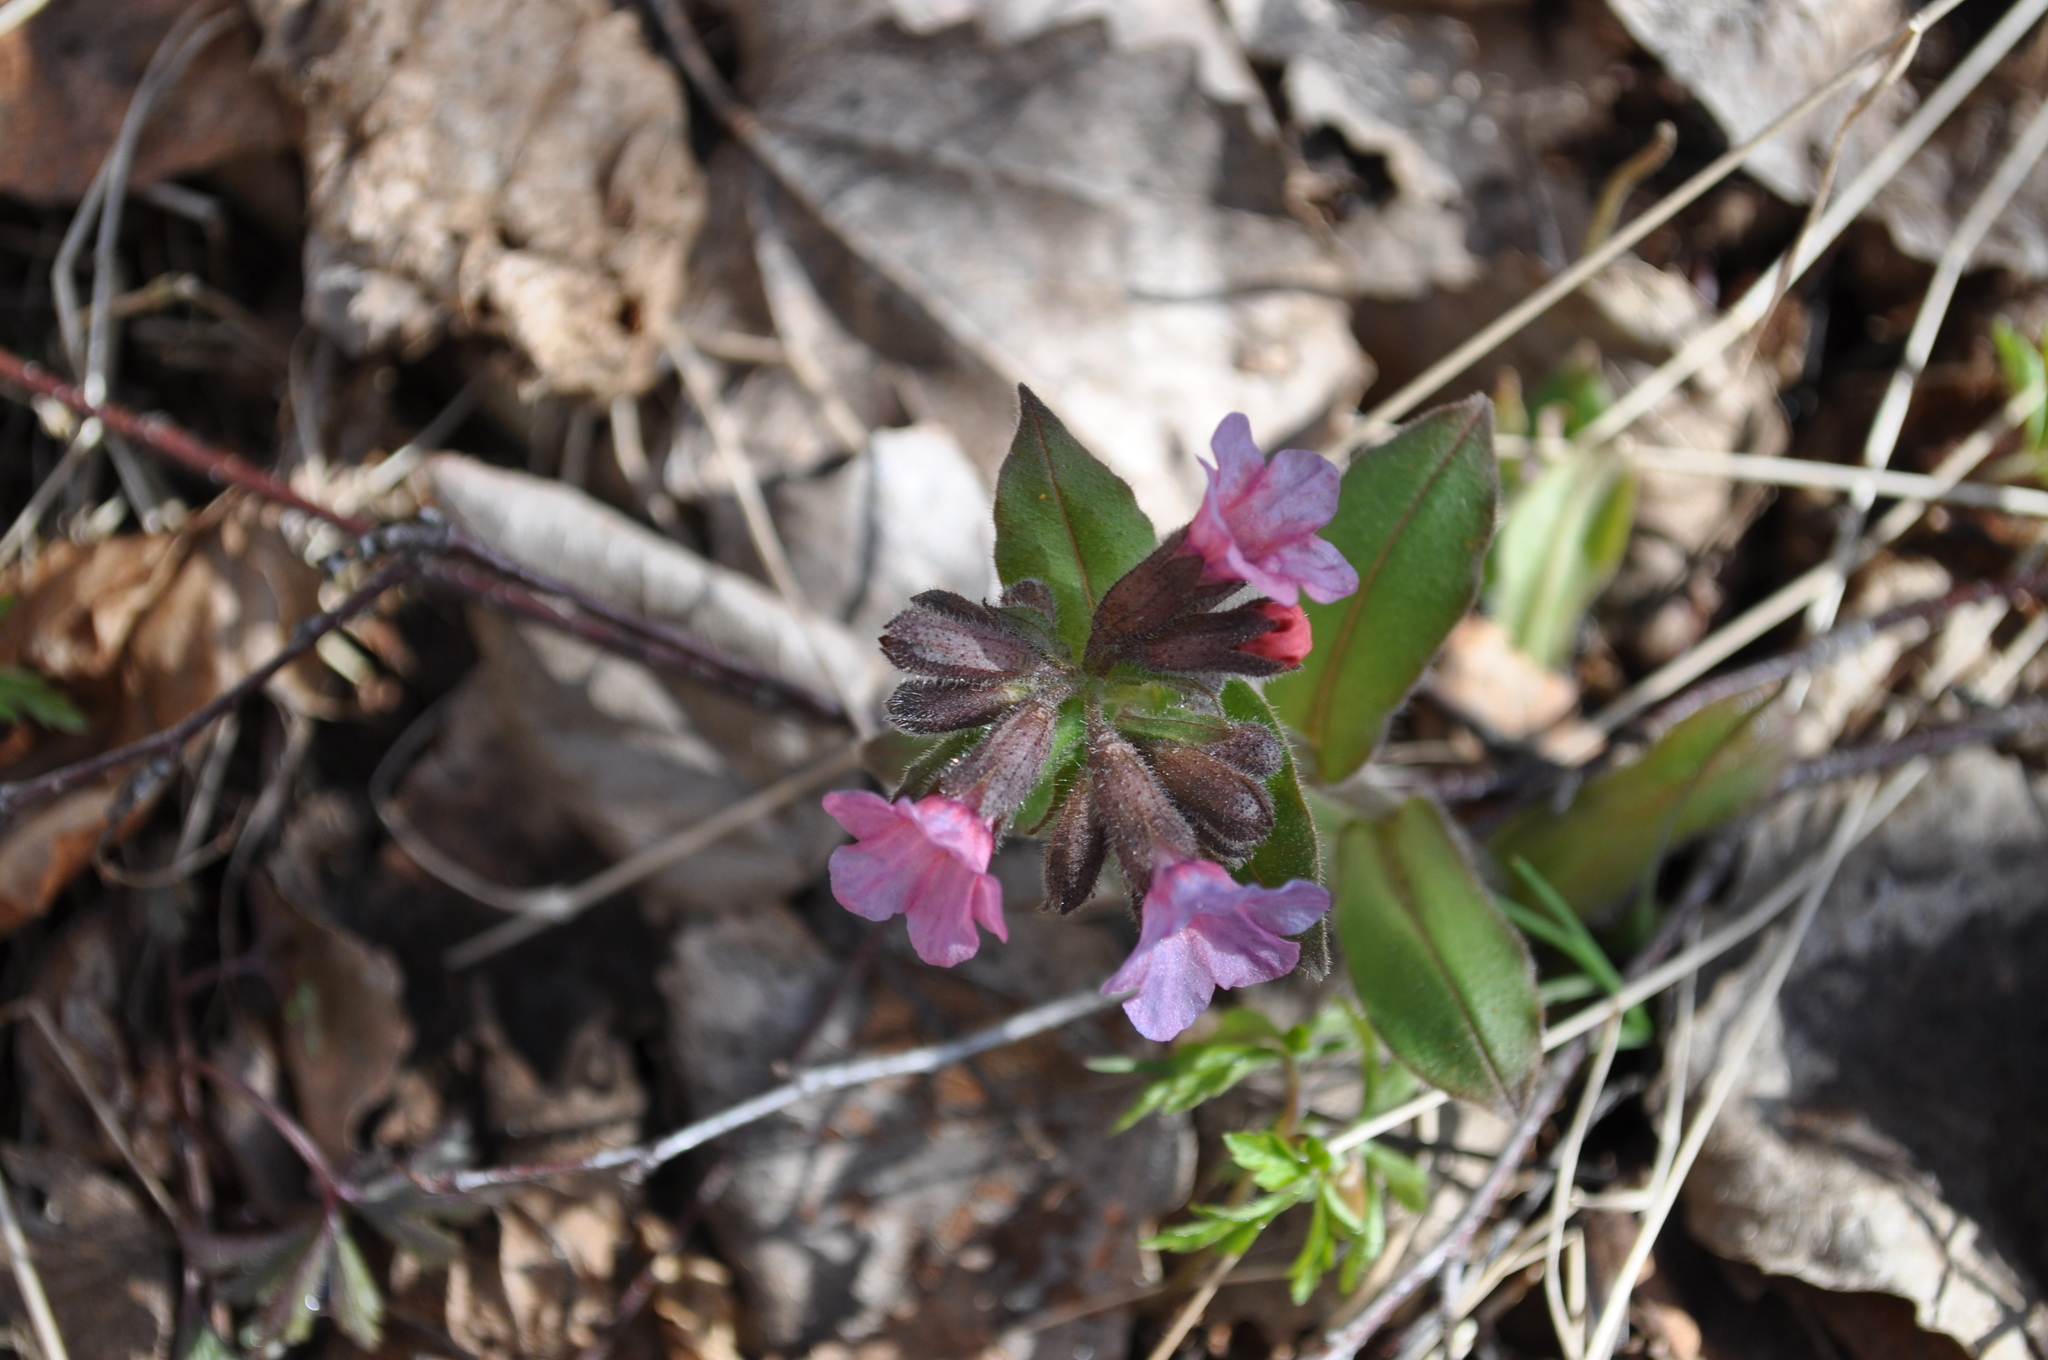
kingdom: Plantae
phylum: Tracheophyta
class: Magnoliopsida
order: Boraginales
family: Boraginaceae
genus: Pulmonaria
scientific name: Pulmonaria obscura
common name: Suffolk lungwort
